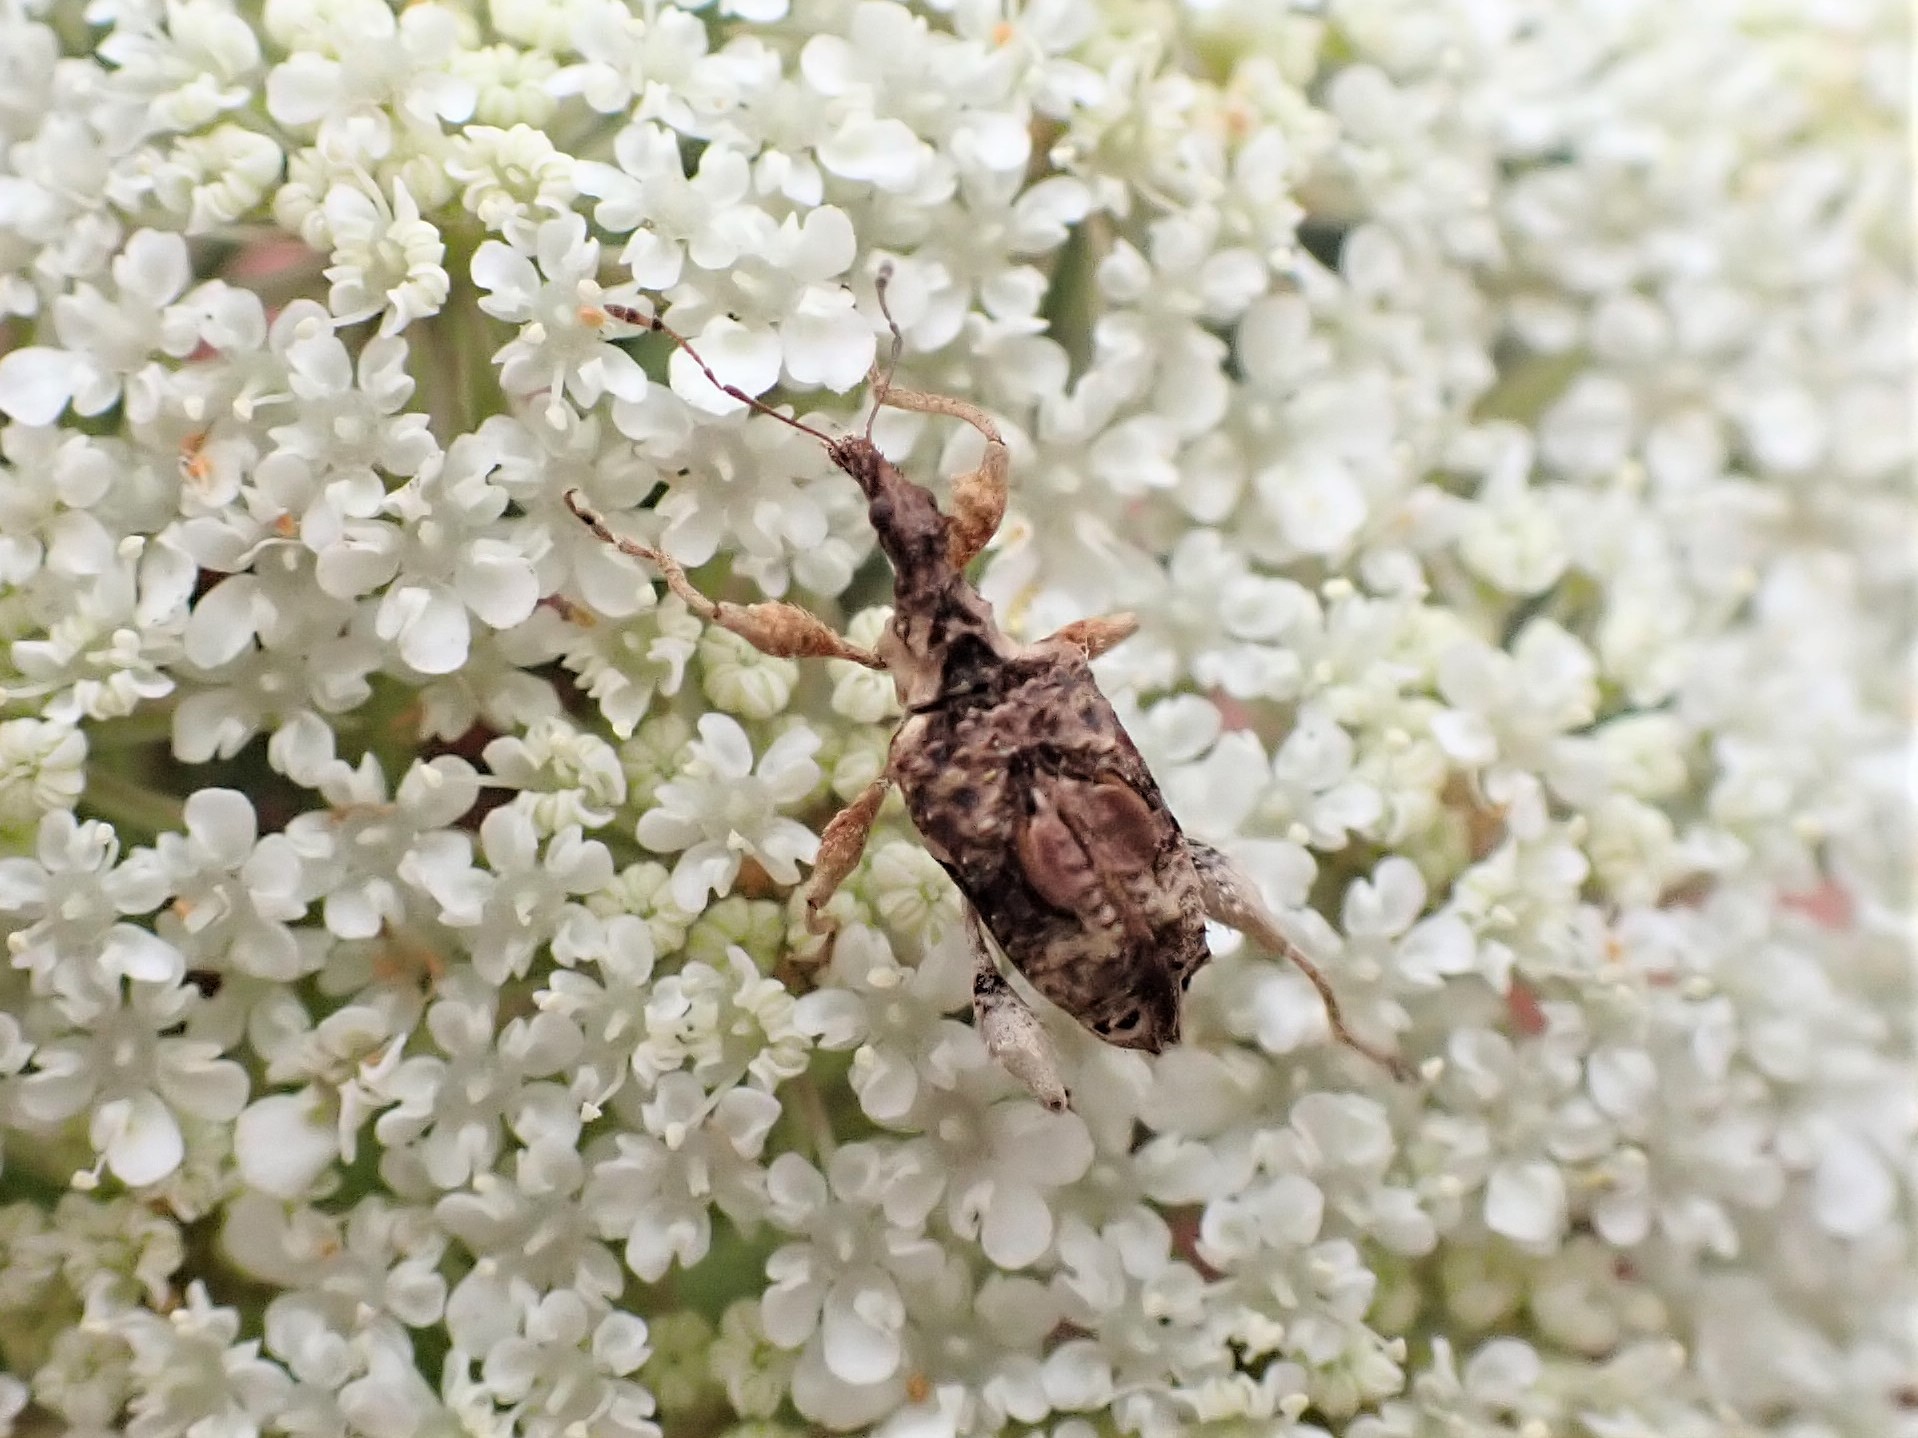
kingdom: Animalia
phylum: Arthropoda
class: Insecta
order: Coleoptera
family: Curculionidae
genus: Stephanorhynchus
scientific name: Stephanorhynchus curvipes
